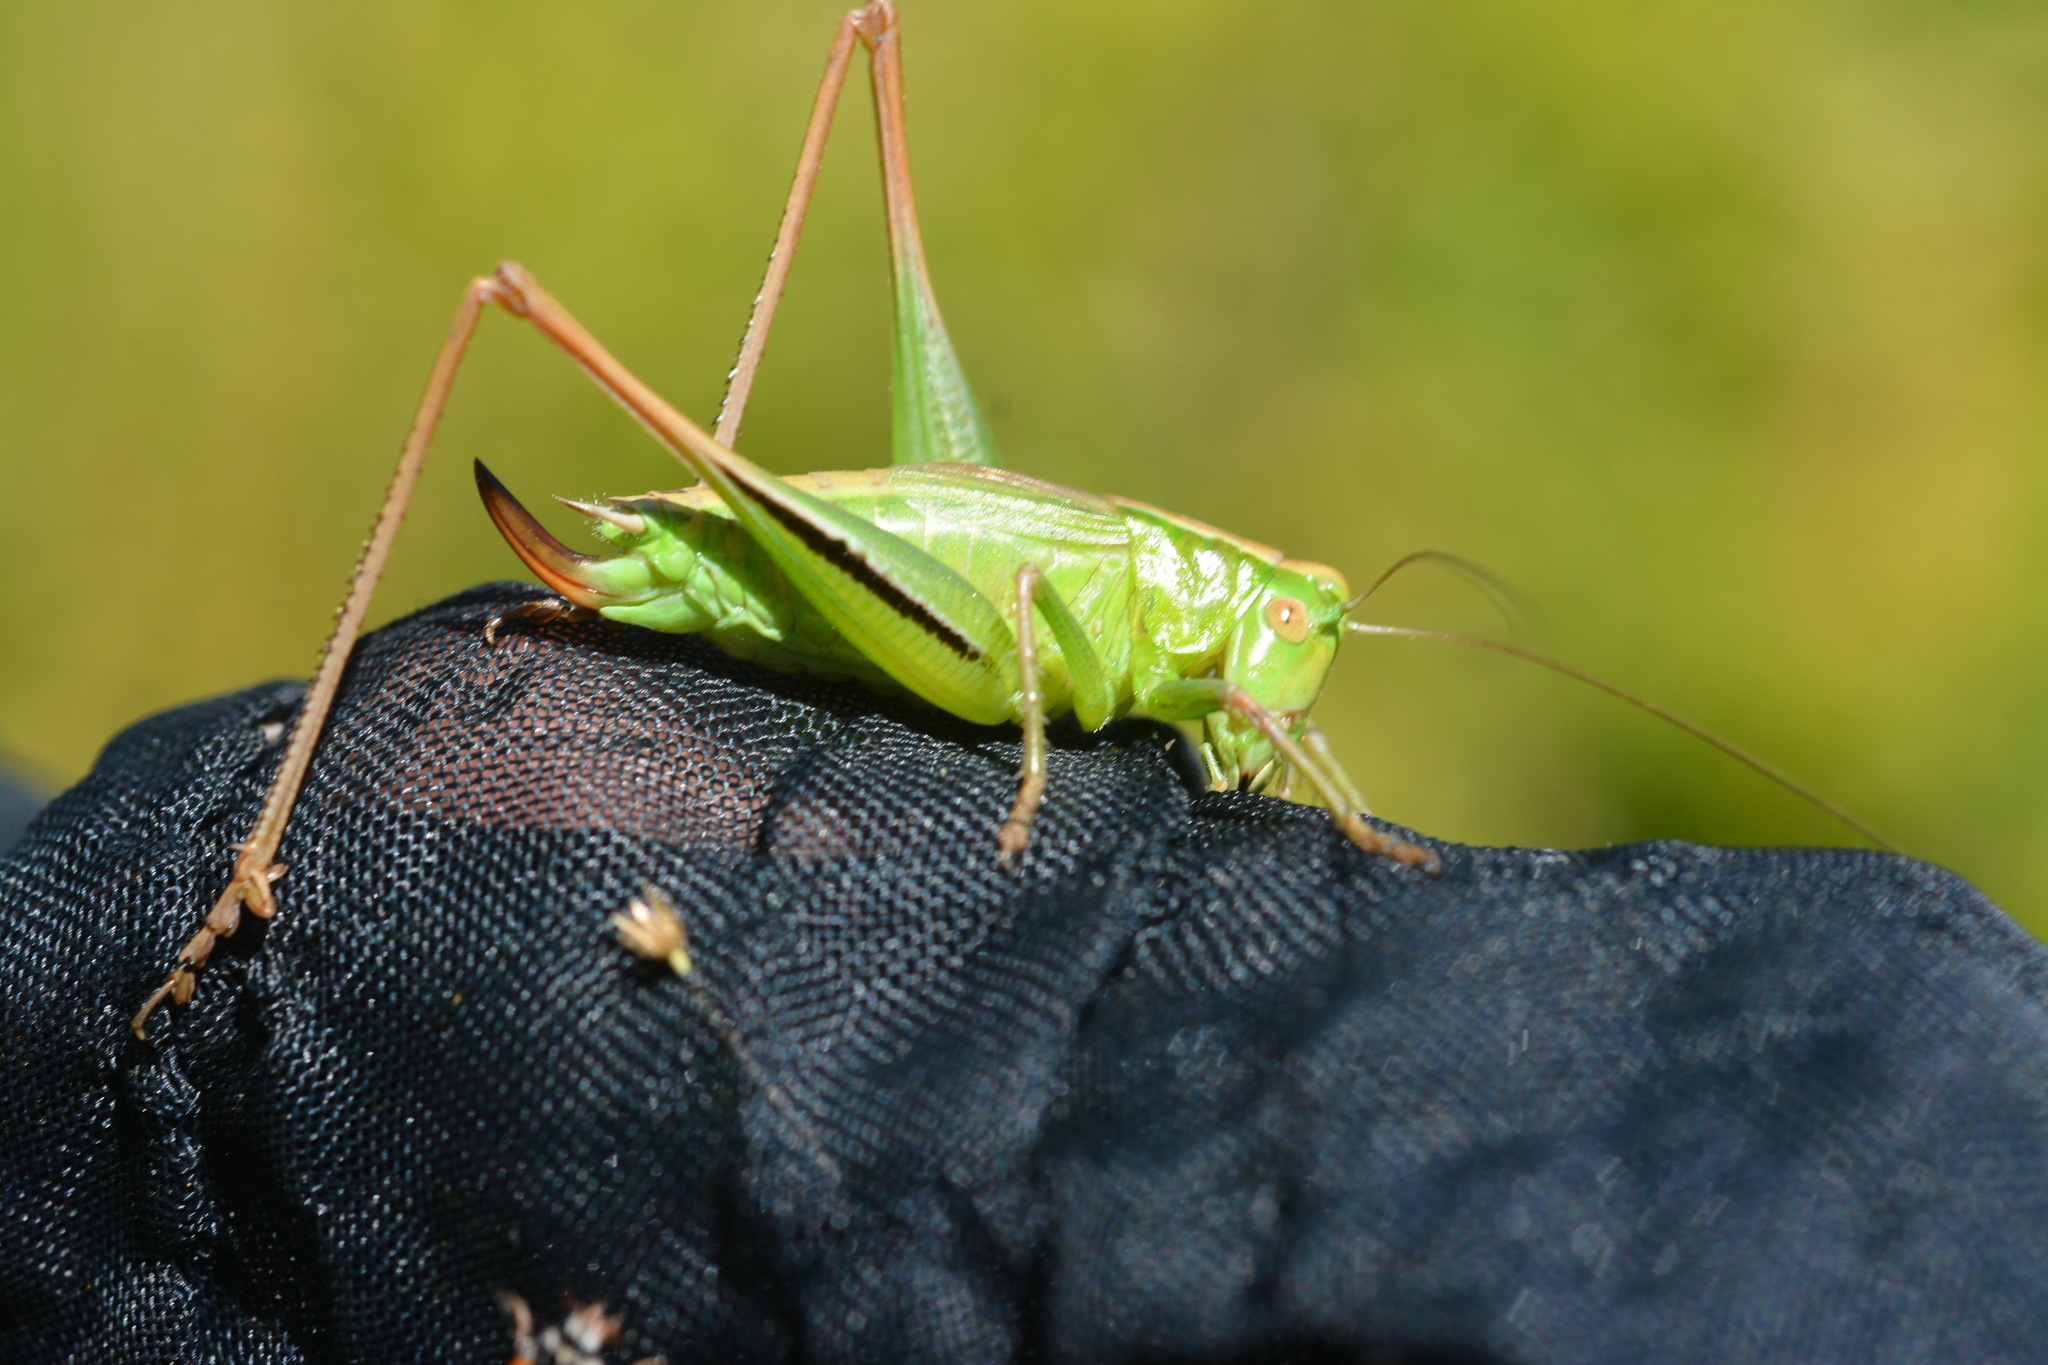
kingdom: Animalia
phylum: Arthropoda
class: Insecta
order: Orthoptera
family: Tettigoniidae
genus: Bicolorana
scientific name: Bicolorana bicolor
